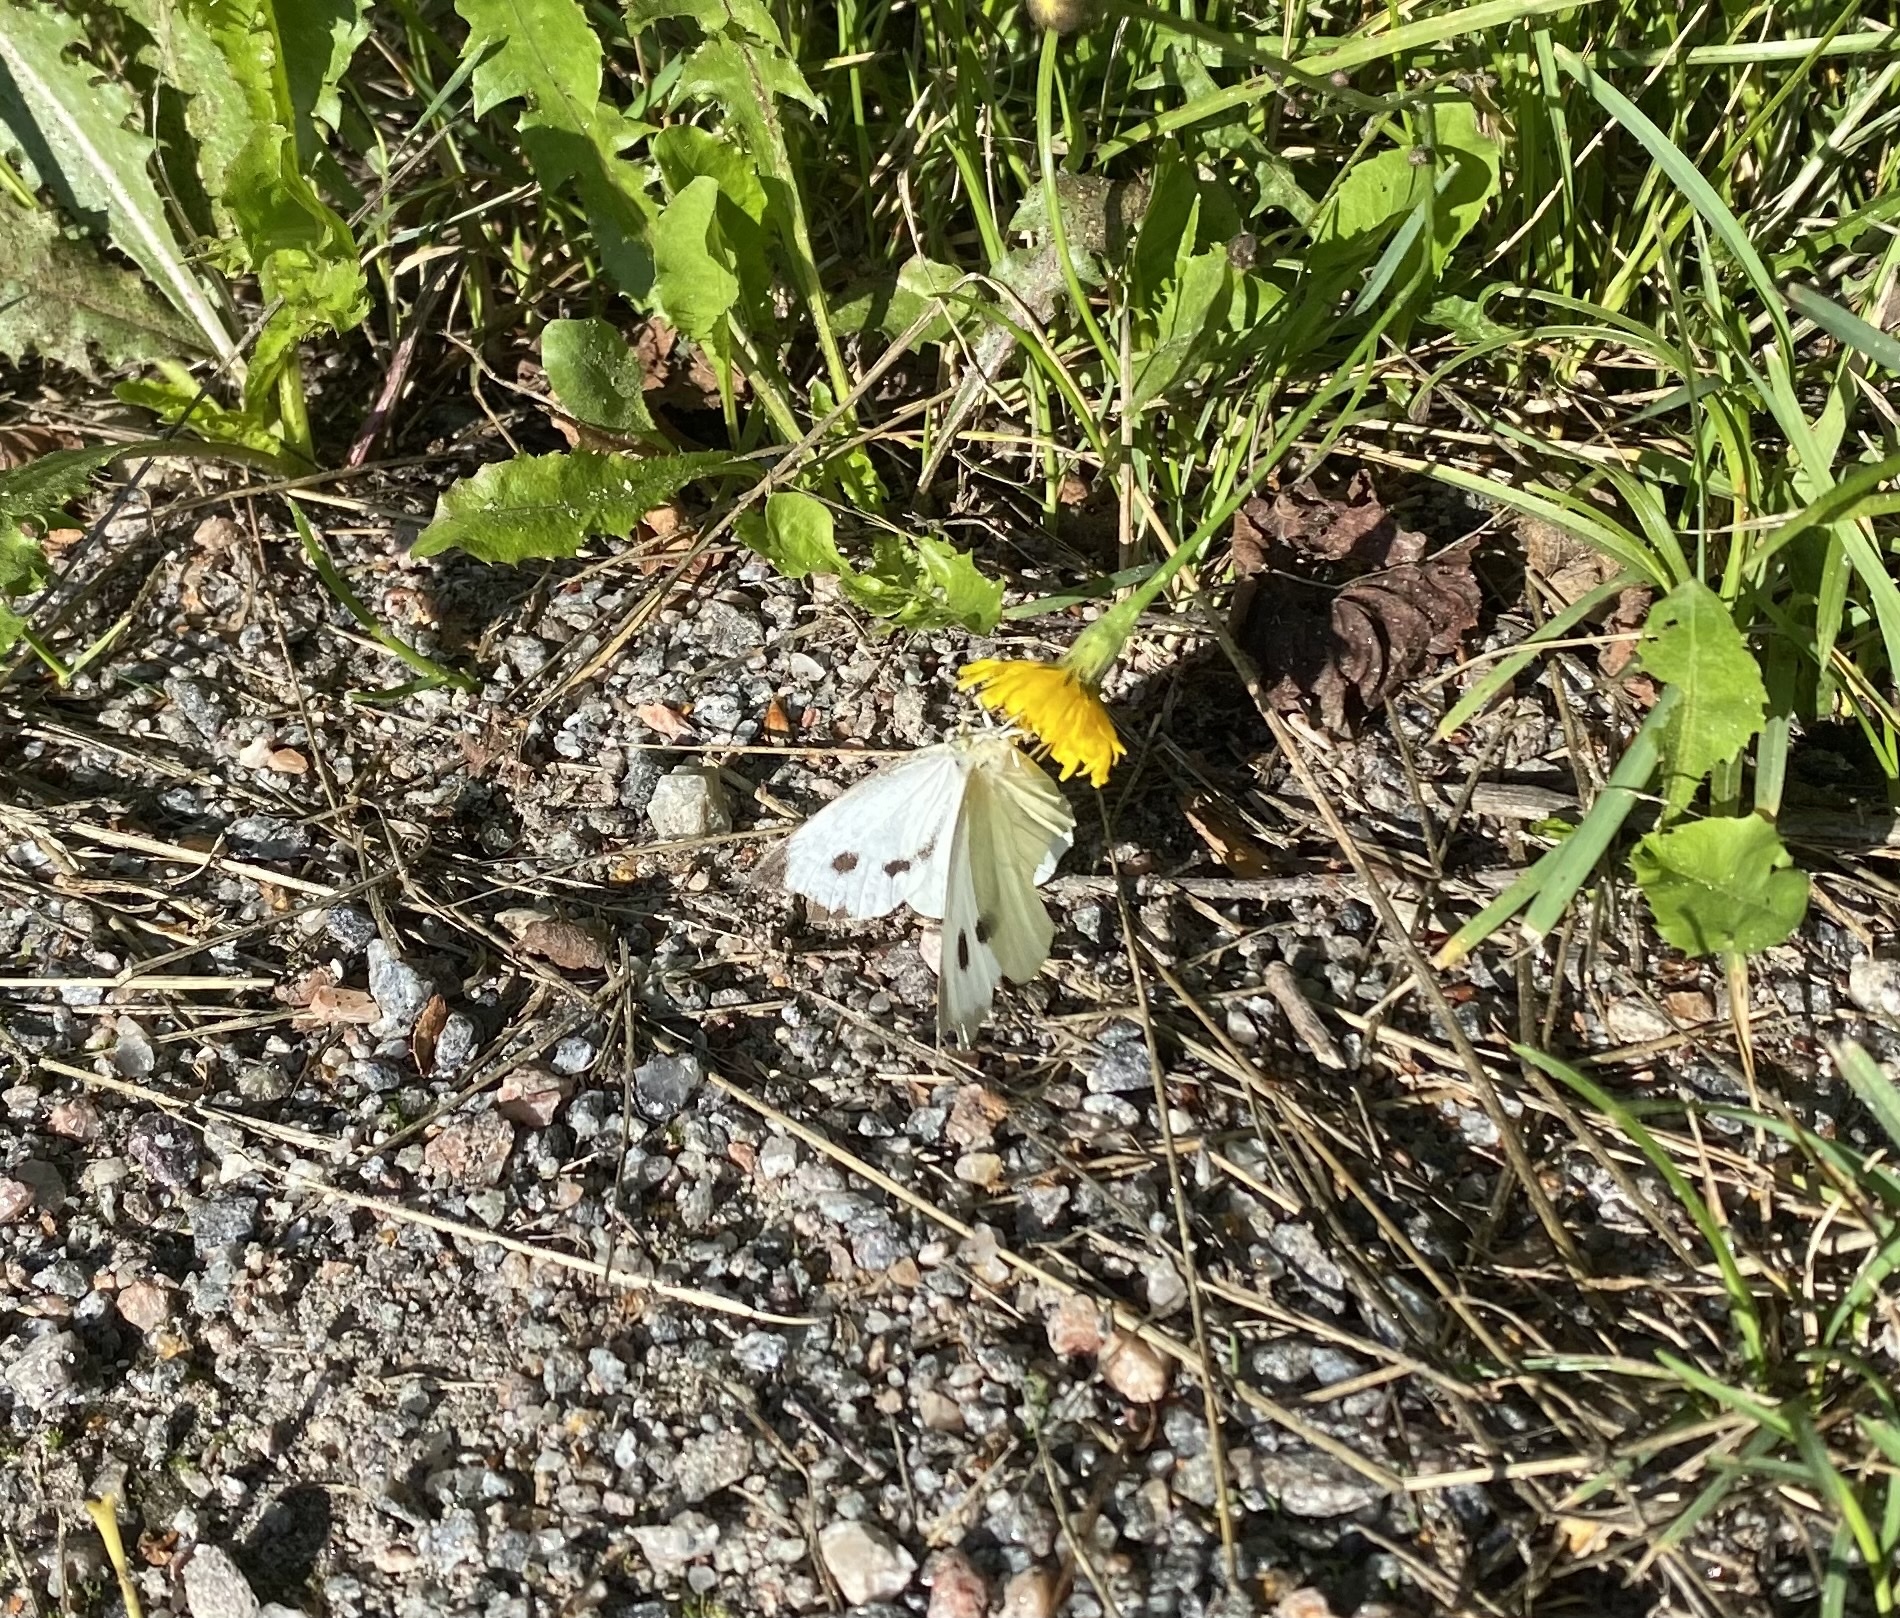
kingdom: Animalia
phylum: Arthropoda
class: Insecta
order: Lepidoptera
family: Pieridae
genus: Pieris
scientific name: Pieris brassicae
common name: Large white
